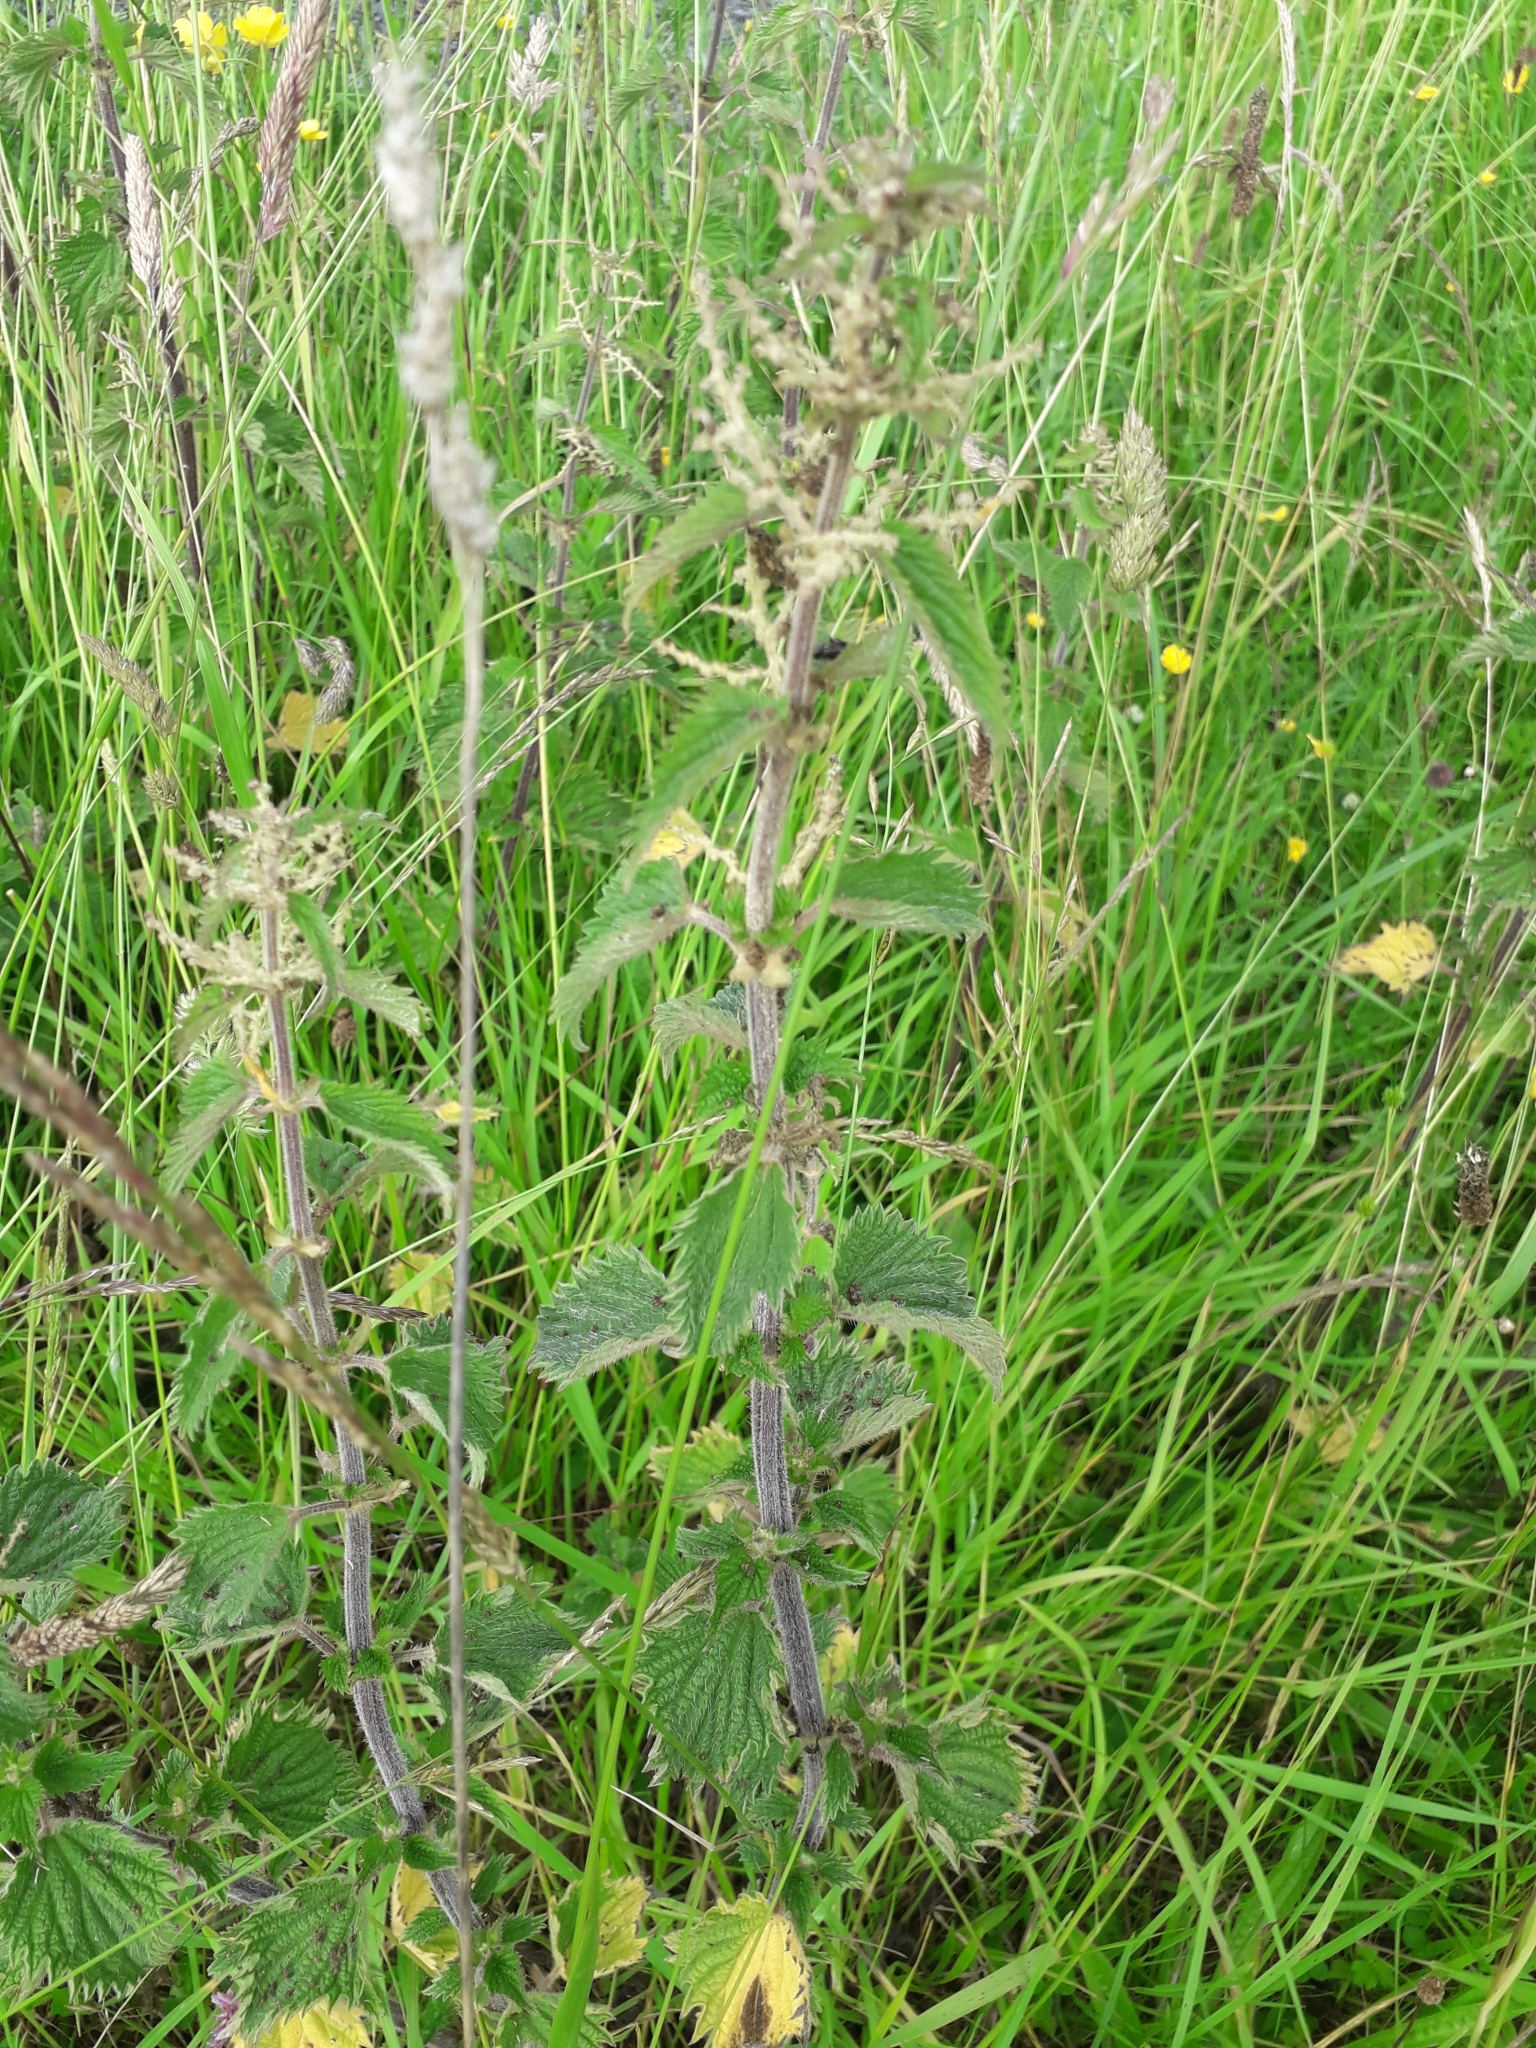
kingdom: Plantae
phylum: Tracheophyta
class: Magnoliopsida
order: Rosales
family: Urticaceae
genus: Urtica
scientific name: Urtica dioica
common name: Common nettle
